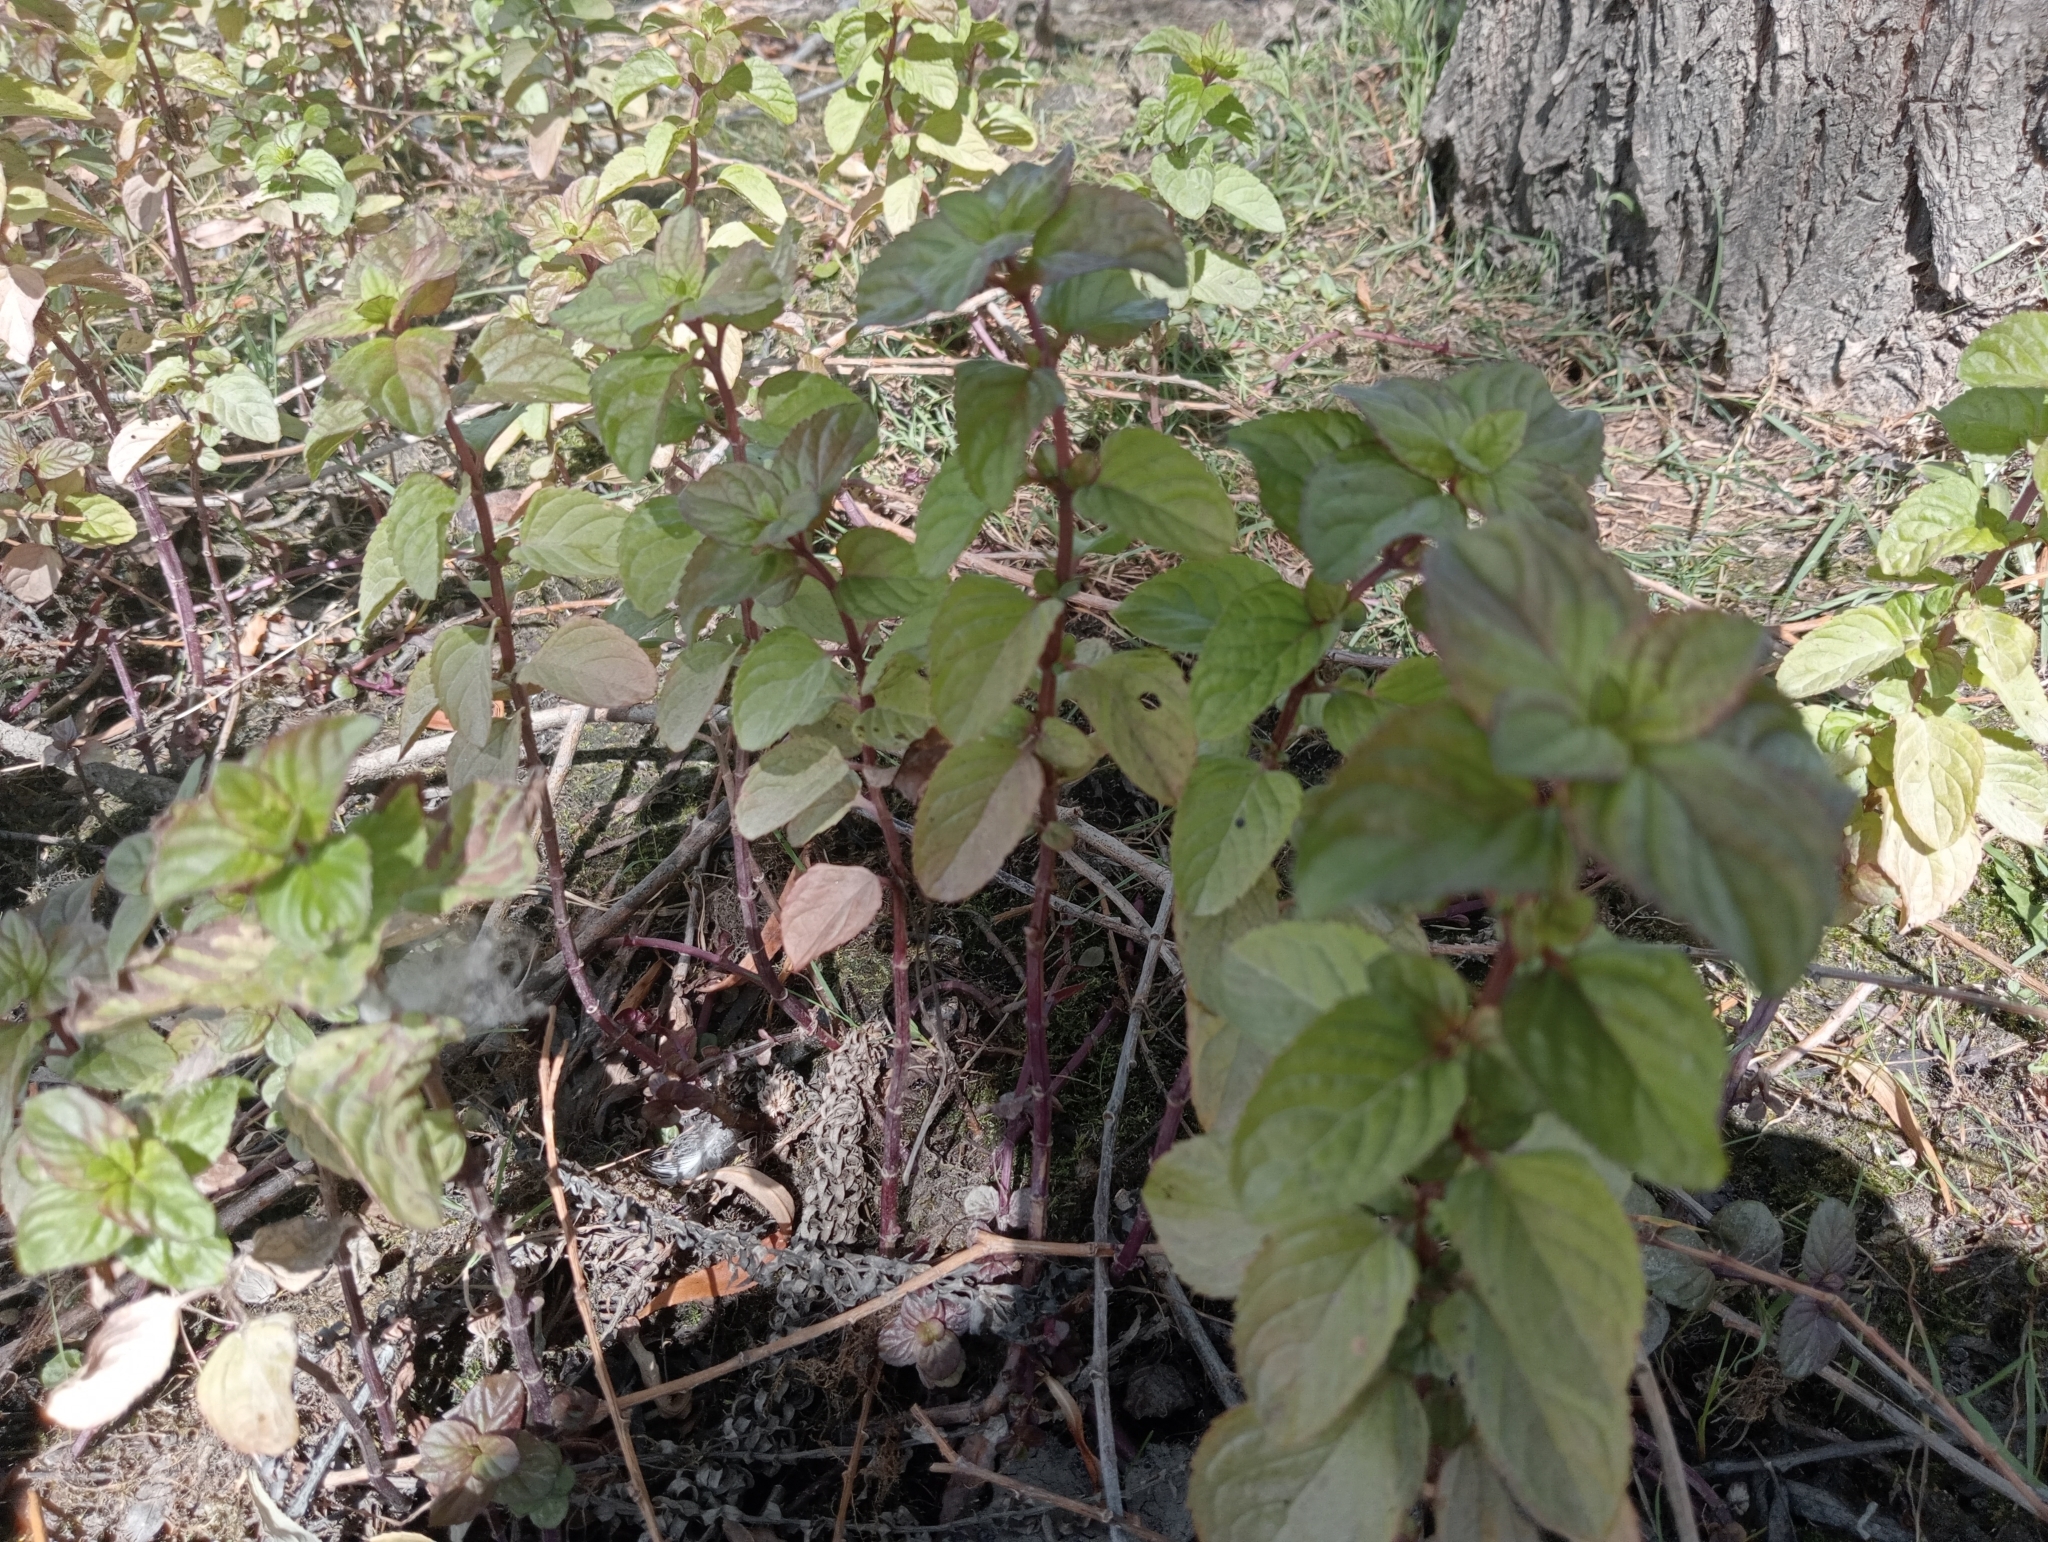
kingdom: Plantae
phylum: Tracheophyta
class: Magnoliopsida
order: Lamiales
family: Lamiaceae
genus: Mentha
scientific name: Mentha aquatica
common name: Water mint
